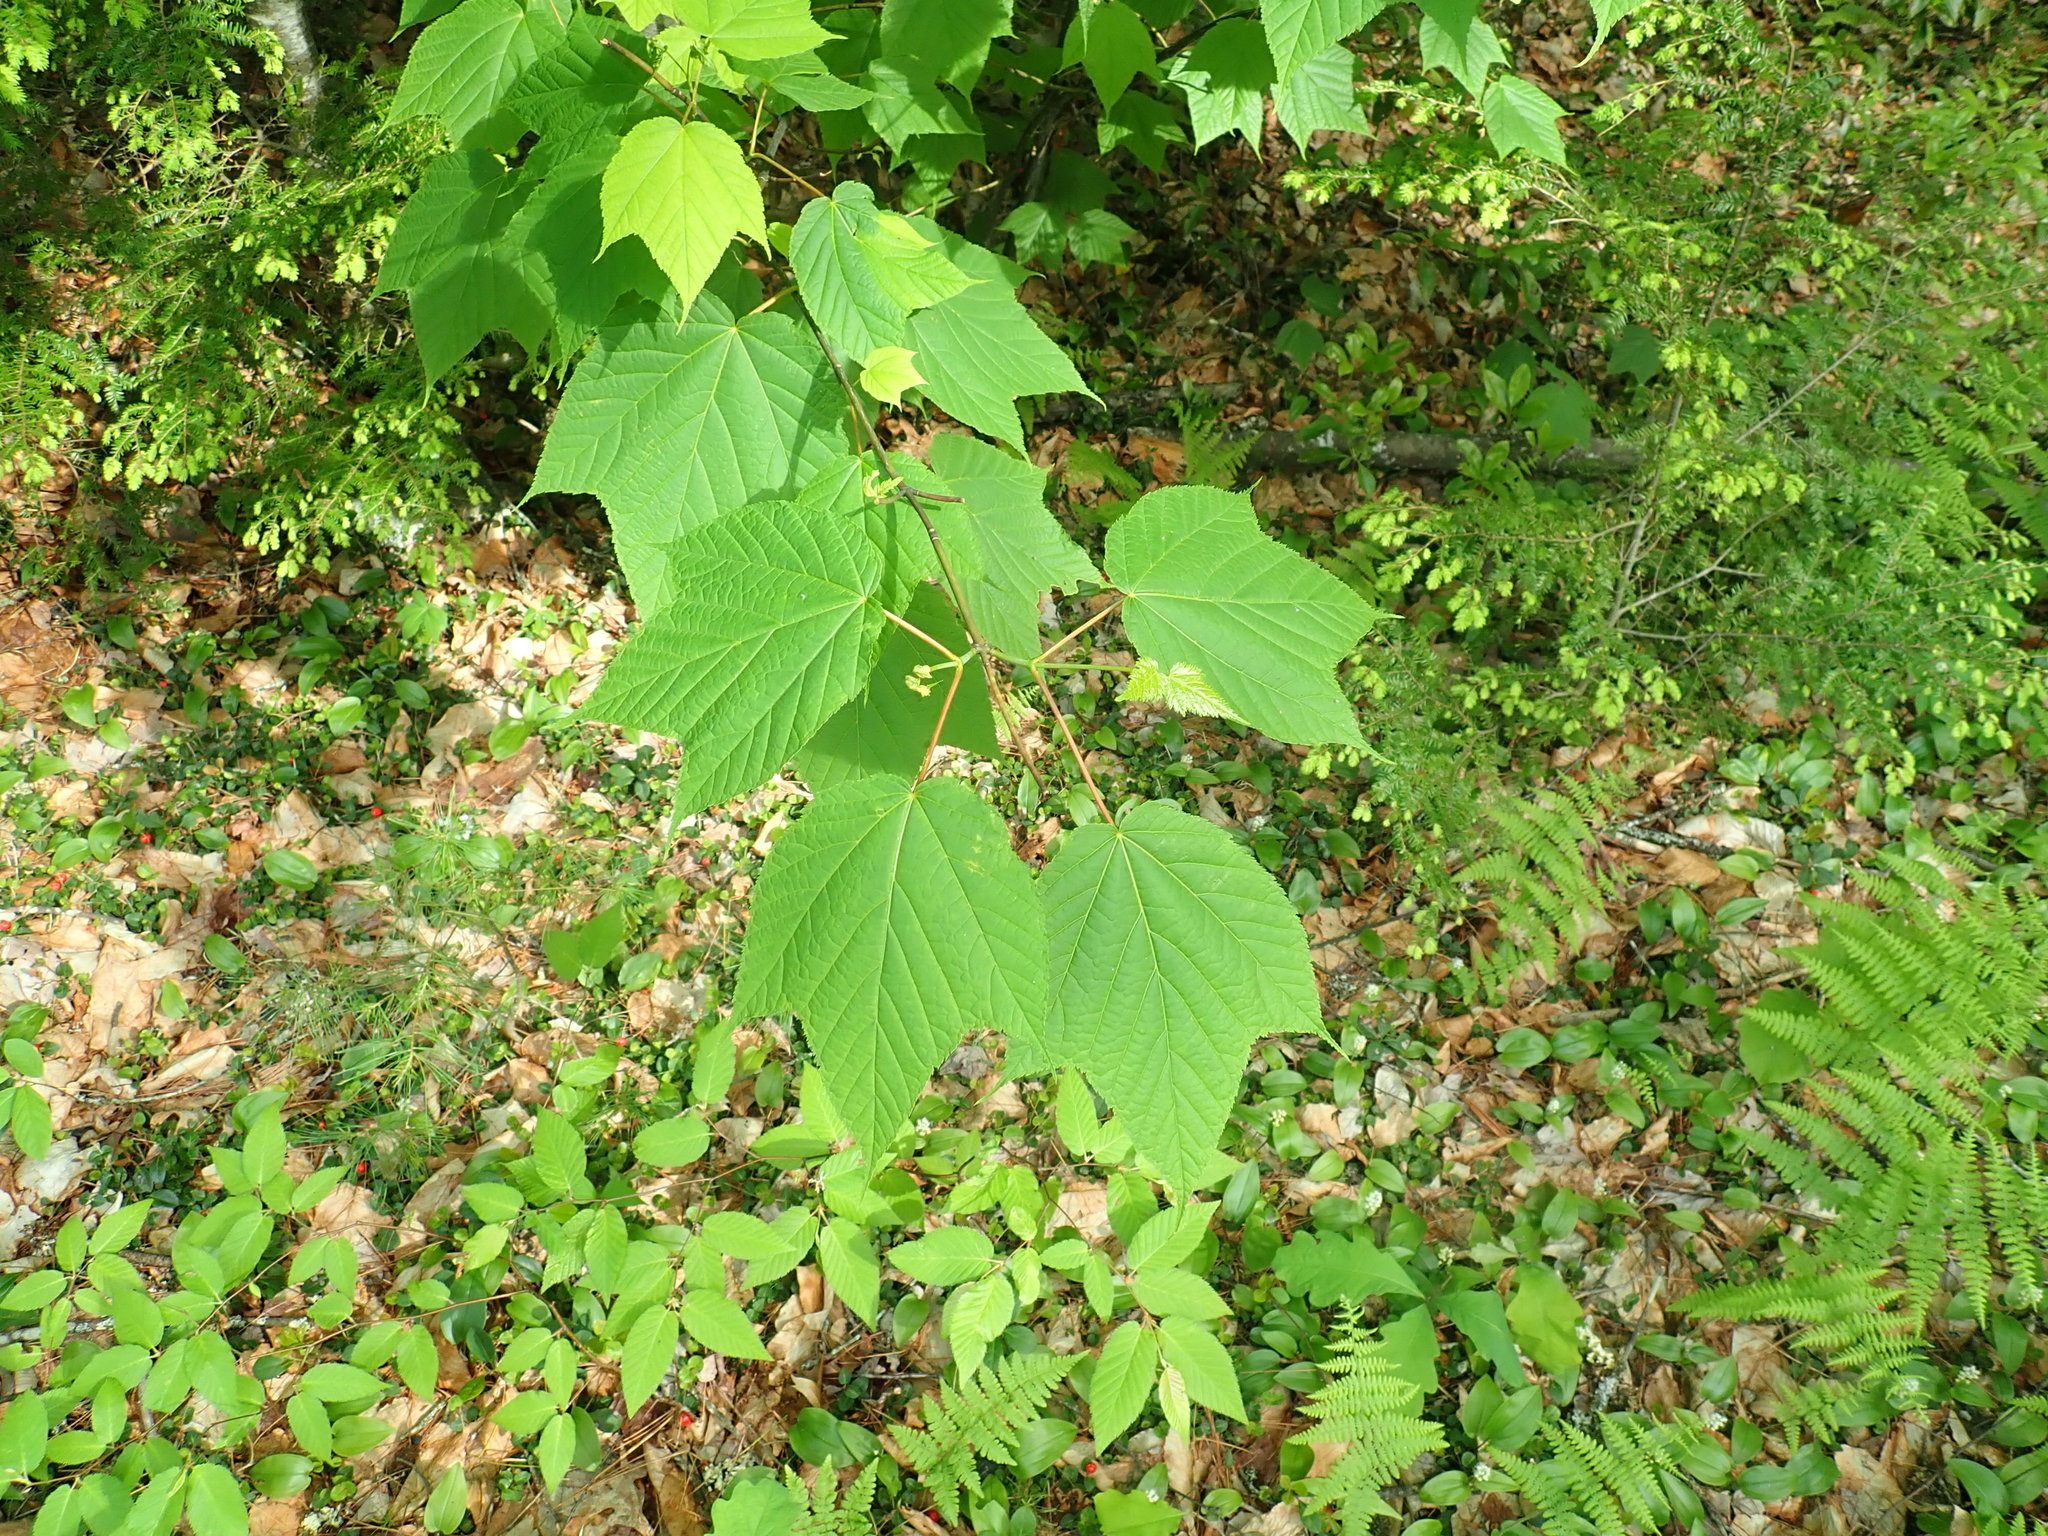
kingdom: Plantae
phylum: Tracheophyta
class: Magnoliopsida
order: Sapindales
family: Sapindaceae
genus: Acer
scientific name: Acer pensylvanicum
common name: Moosewood
